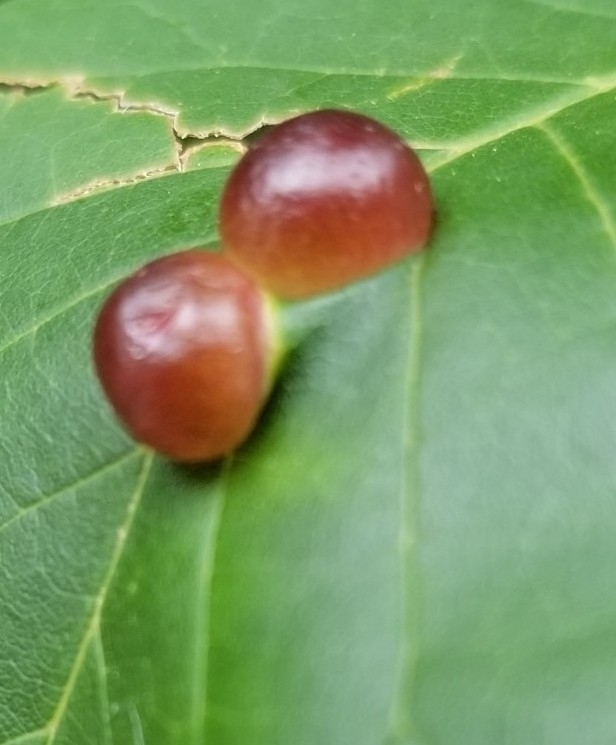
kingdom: Animalia
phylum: Arthropoda
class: Insecta
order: Diptera
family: Cecidomyiidae
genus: Dasineura
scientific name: Dasineura pellex
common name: Ash bullet gall midge
